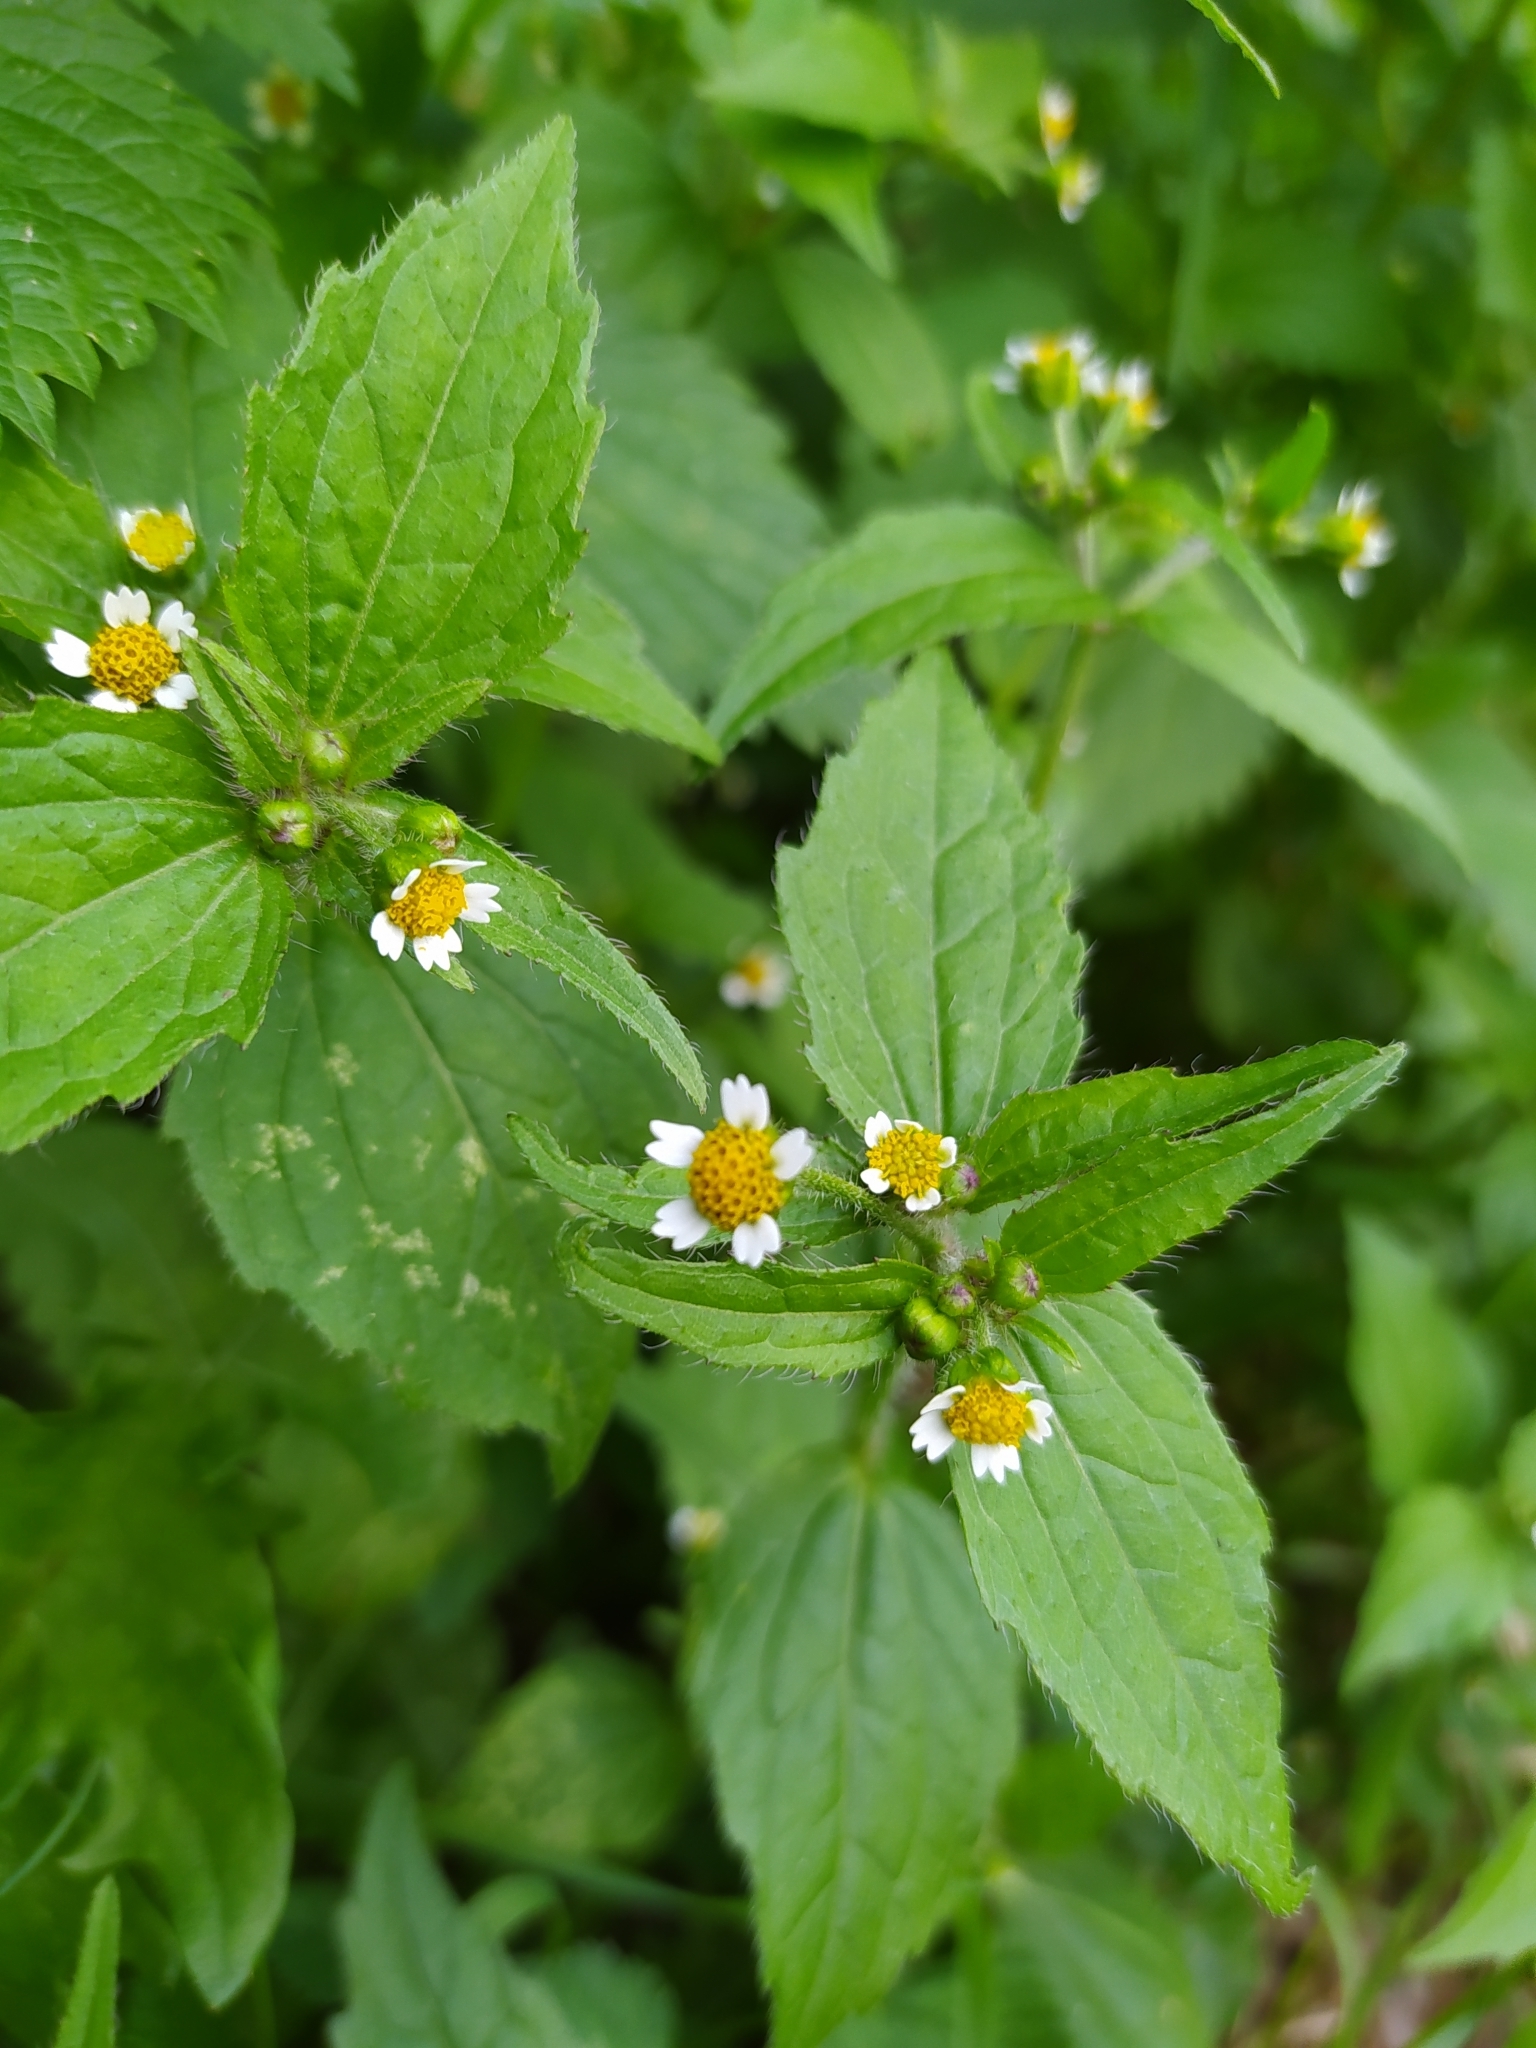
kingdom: Plantae
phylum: Tracheophyta
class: Magnoliopsida
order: Asterales
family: Asteraceae
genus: Galinsoga
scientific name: Galinsoga quadriradiata
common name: Shaggy soldier
